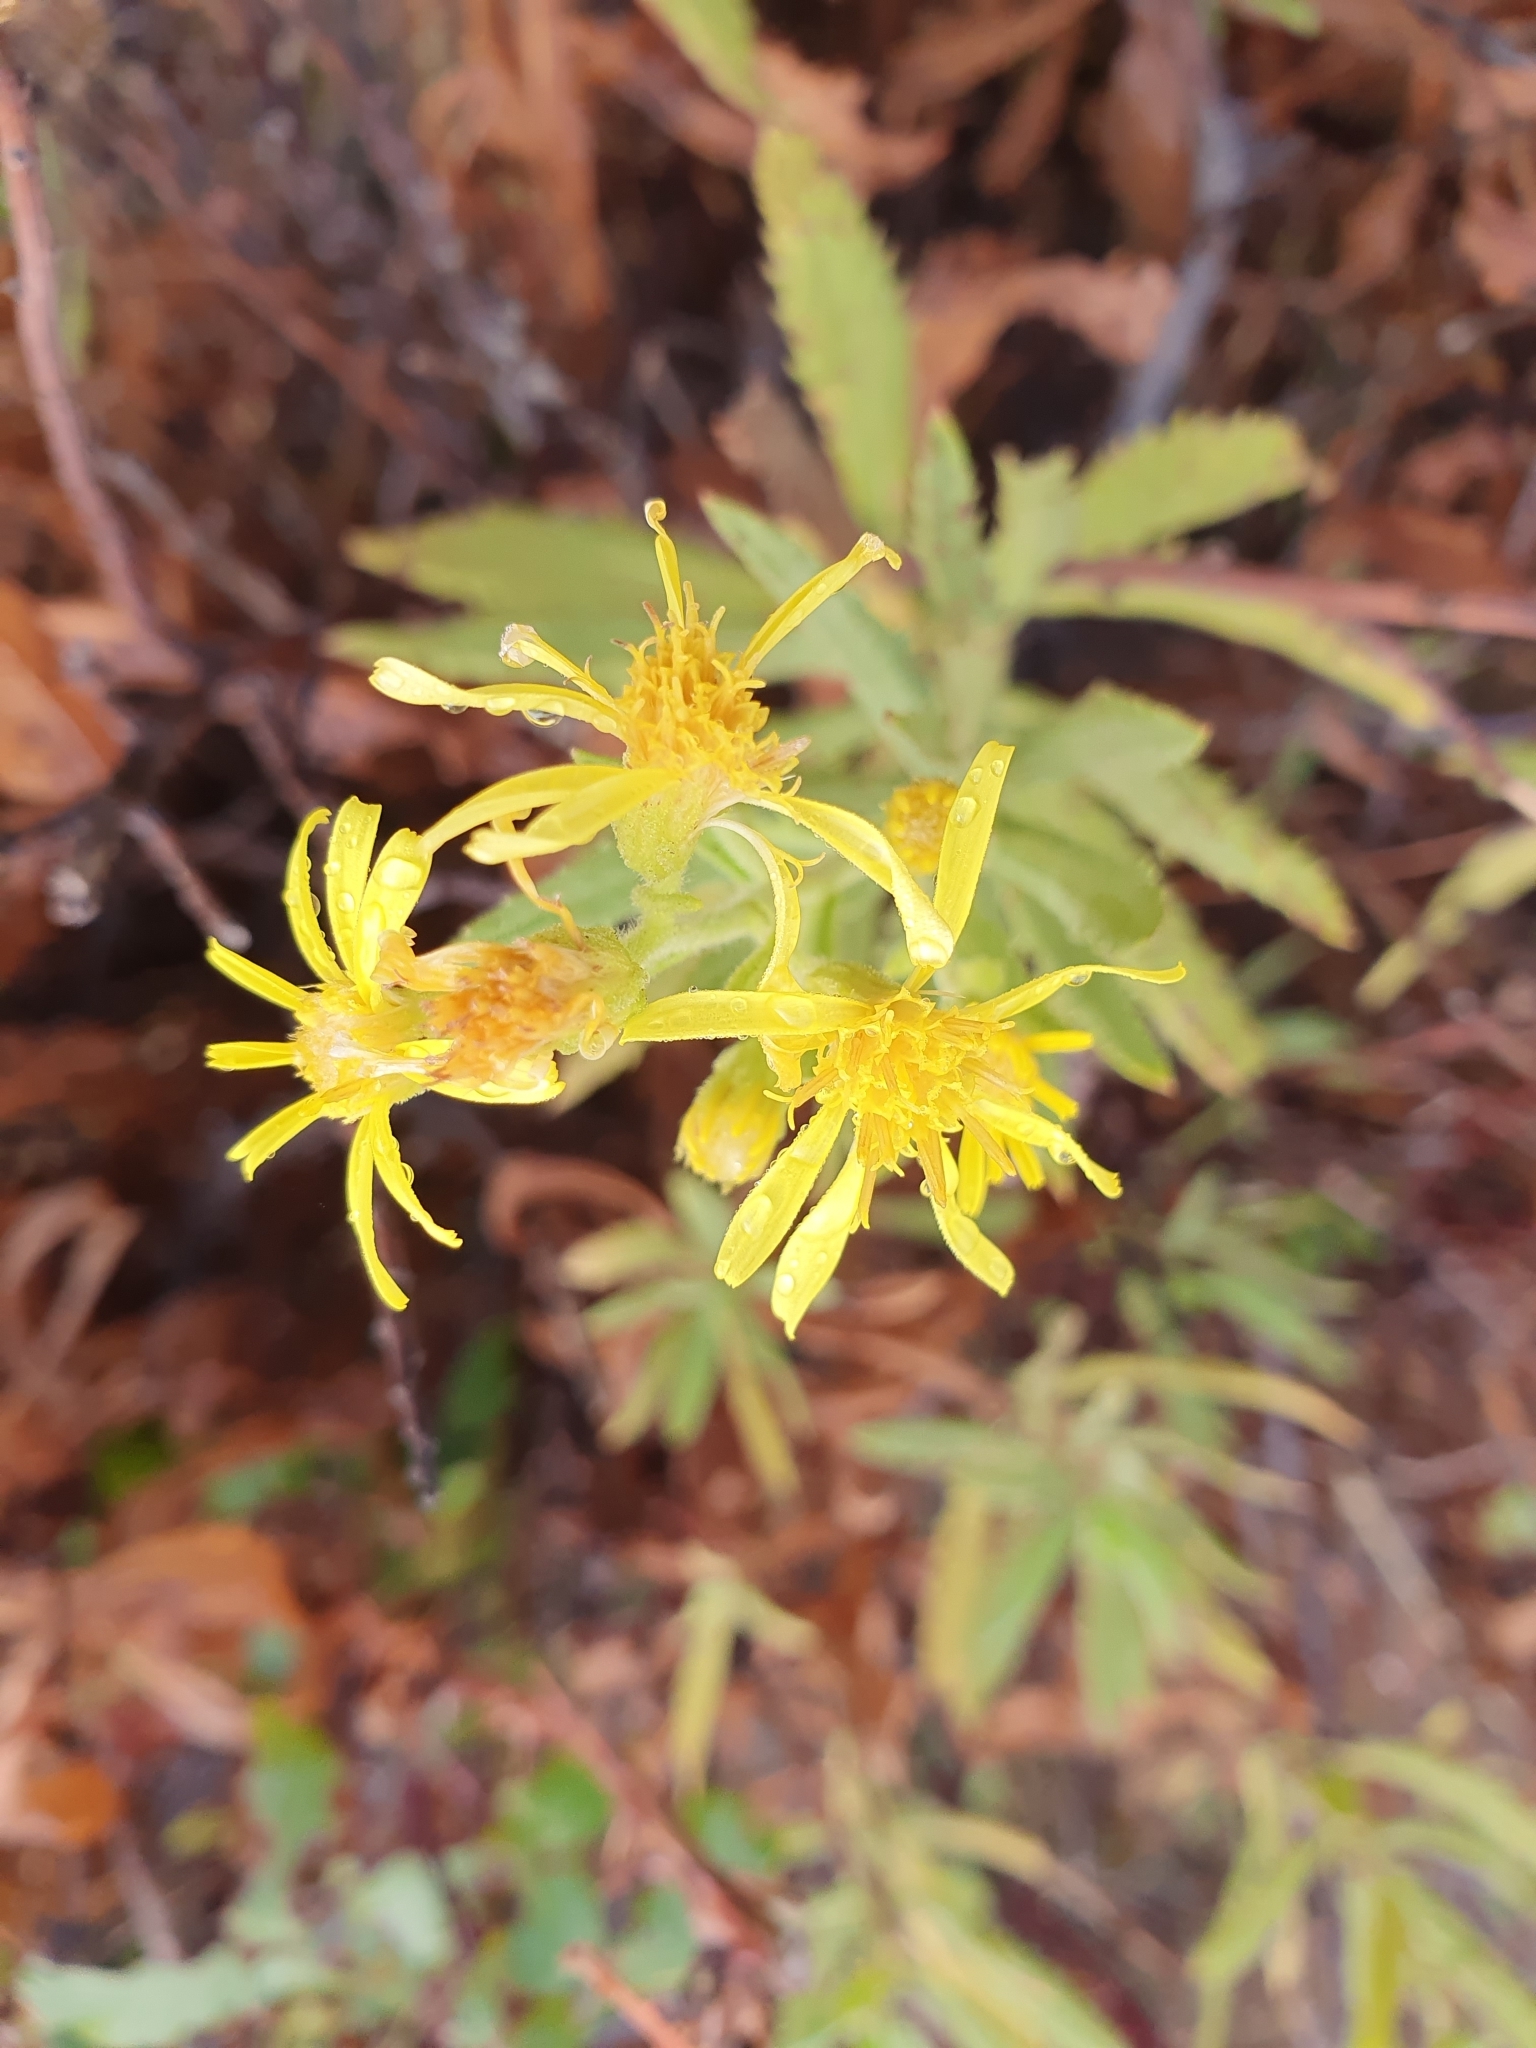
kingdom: Plantae
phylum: Tracheophyta
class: Magnoliopsida
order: Asterales
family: Asteraceae
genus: Dittrichia
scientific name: Dittrichia viscosa
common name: Woody fleabane
